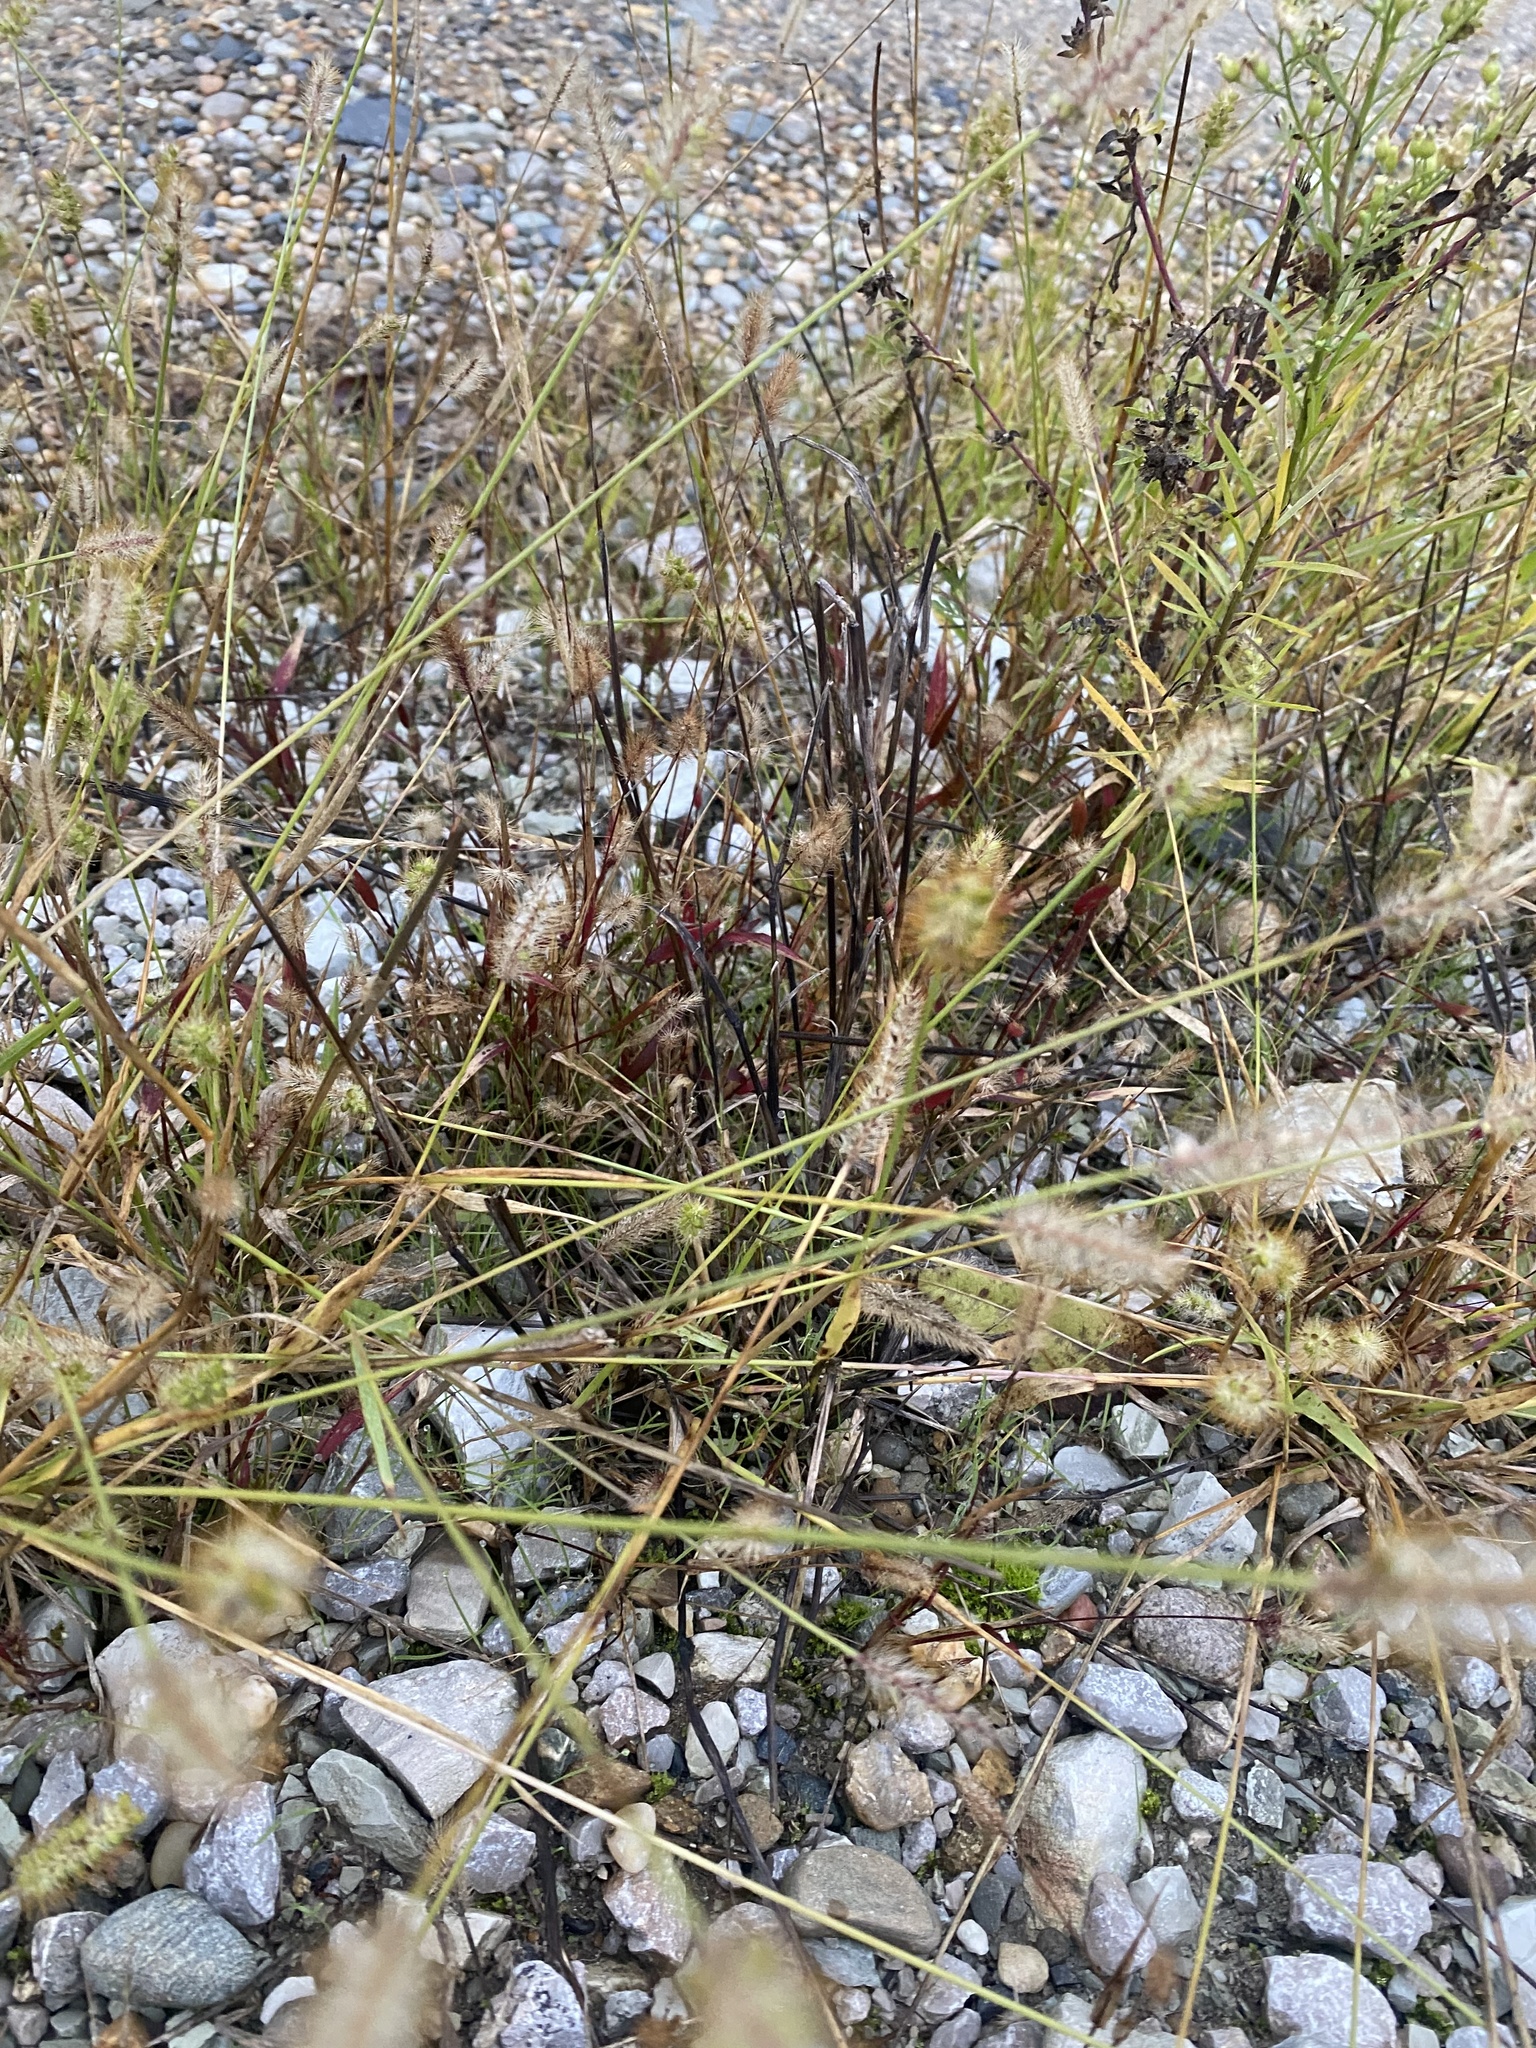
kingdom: Plantae
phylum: Tracheophyta
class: Liliopsida
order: Poales
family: Poaceae
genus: Setaria
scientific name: Setaria pumila
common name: Yellow bristle-grass
